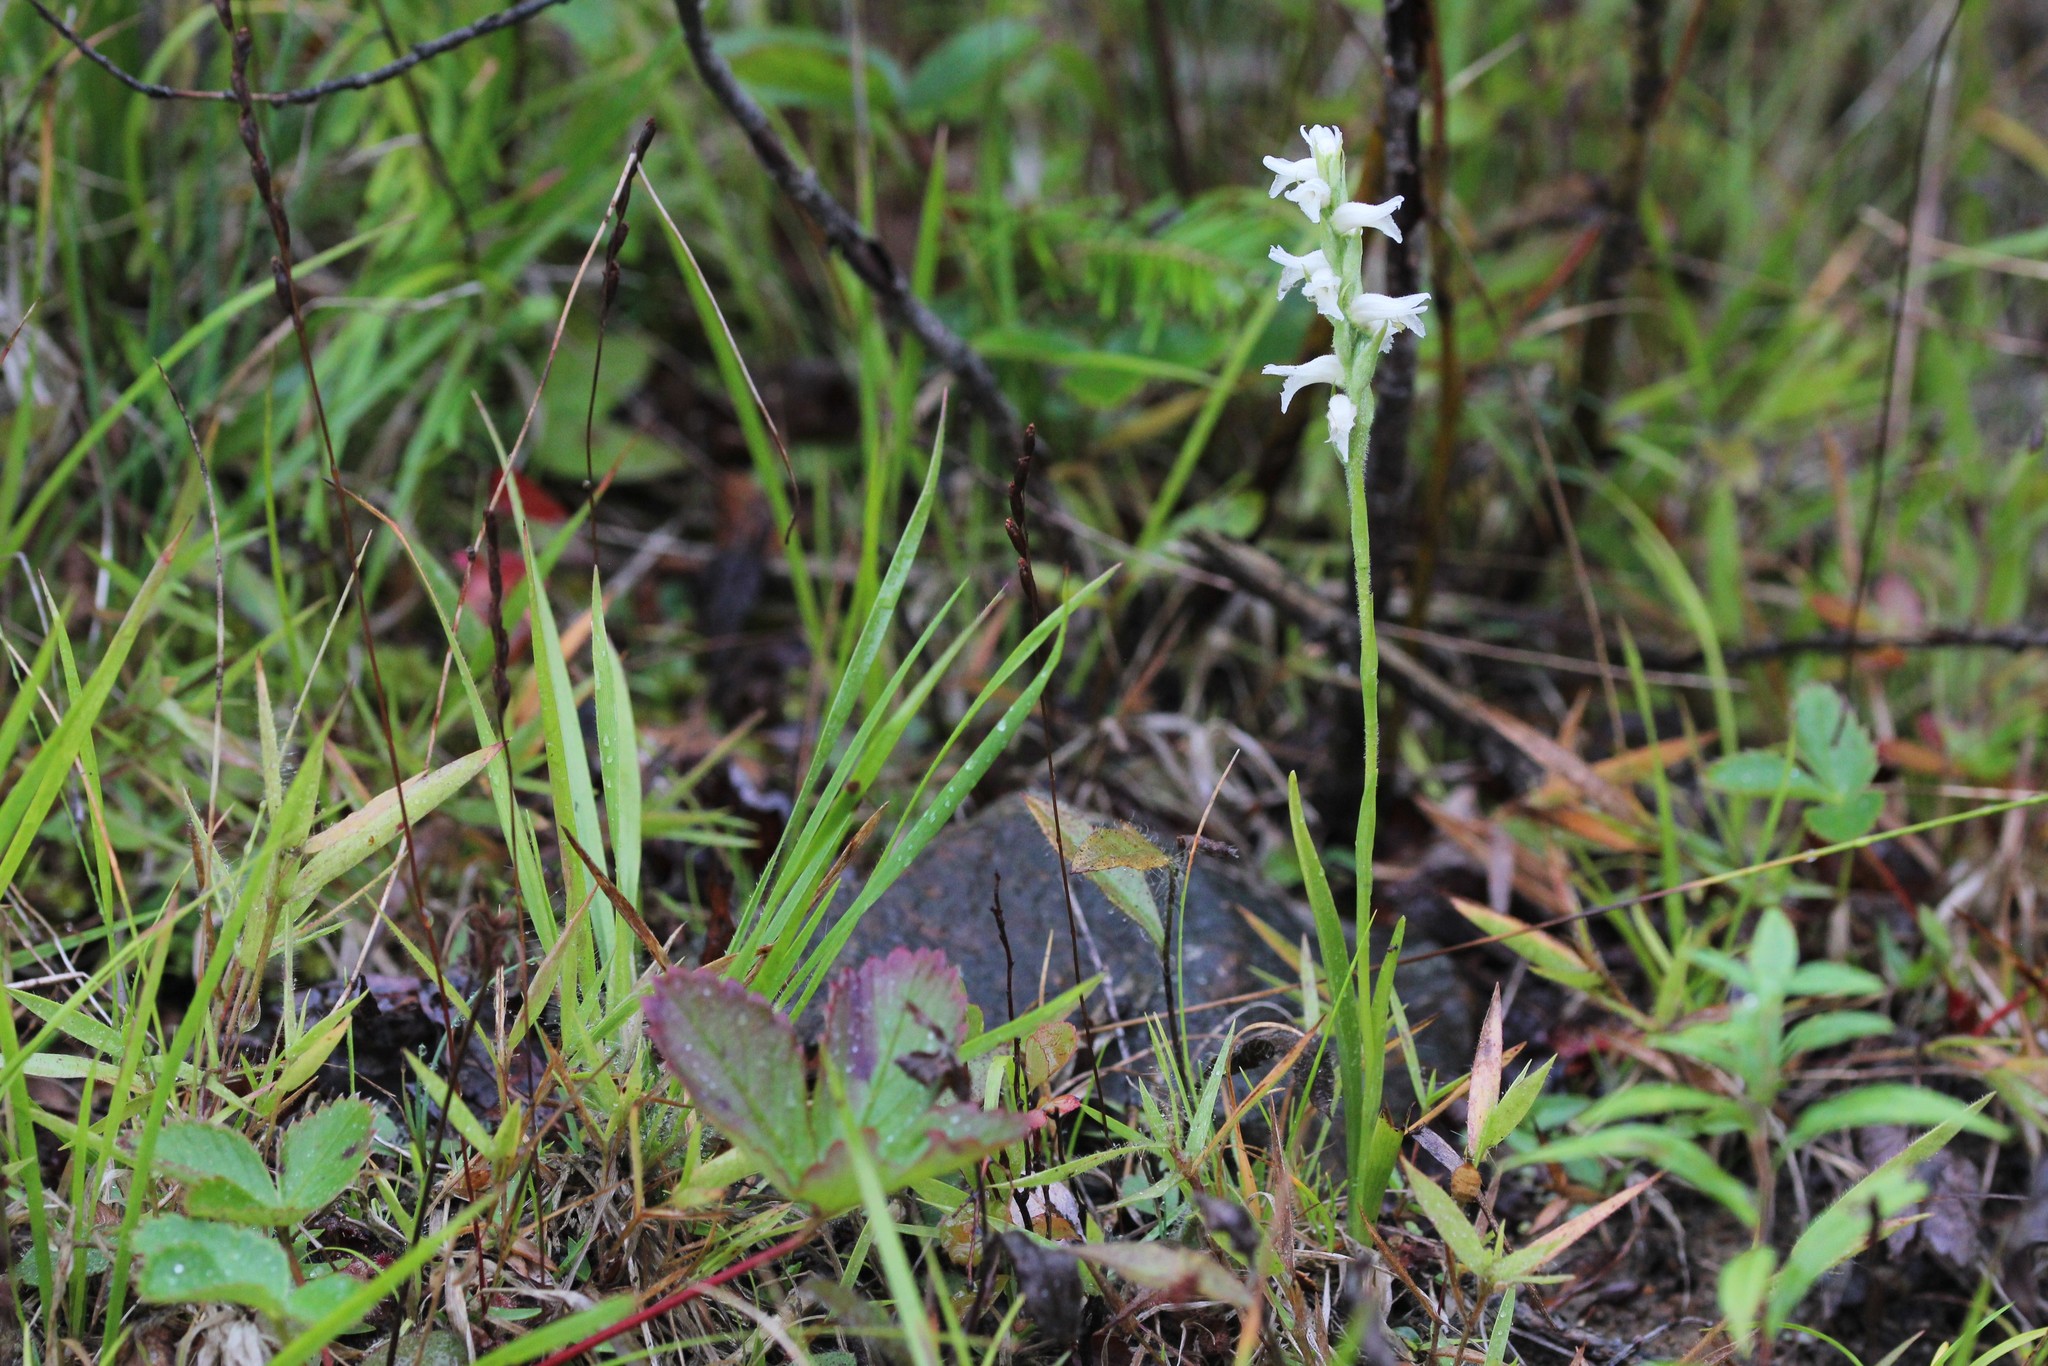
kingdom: Plantae
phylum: Tracheophyta
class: Liliopsida
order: Asparagales
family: Orchidaceae
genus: Spiranthes
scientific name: Spiranthes incurva
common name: Sphinx ladies'-tresses
